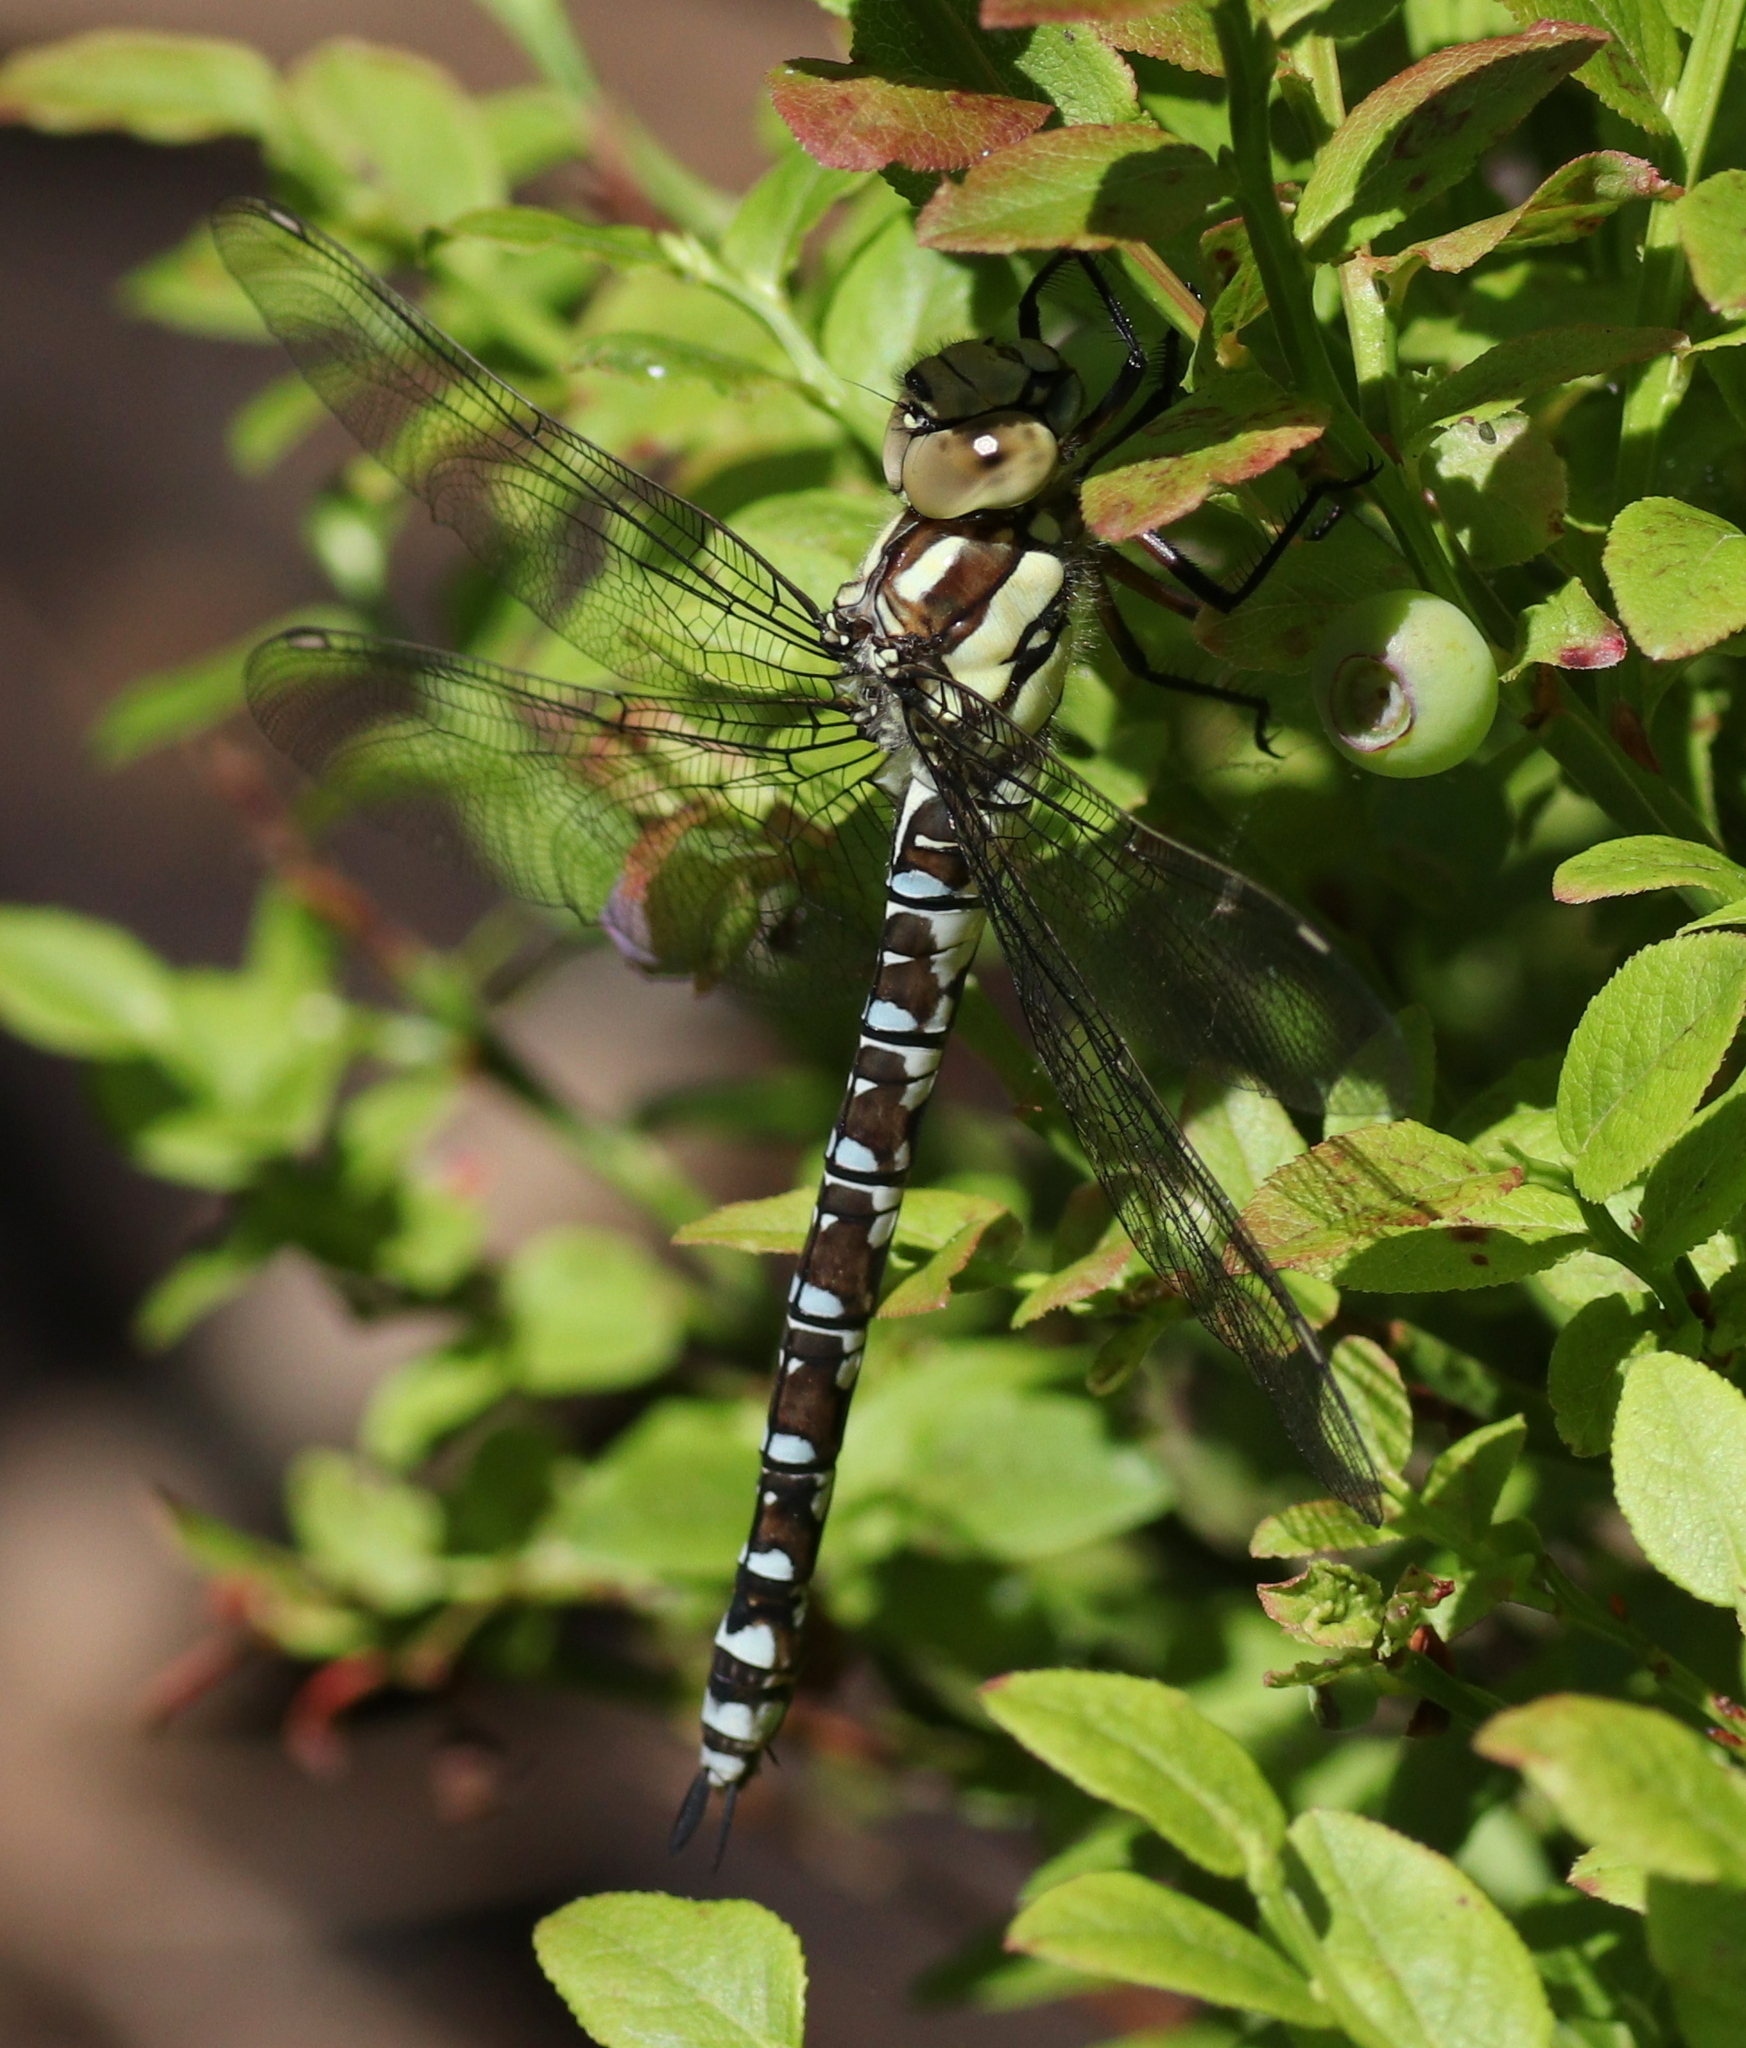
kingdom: Animalia
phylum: Arthropoda
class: Insecta
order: Odonata
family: Aeshnidae
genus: Aeshna
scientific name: Aeshna cyanea
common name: Southern hawker
